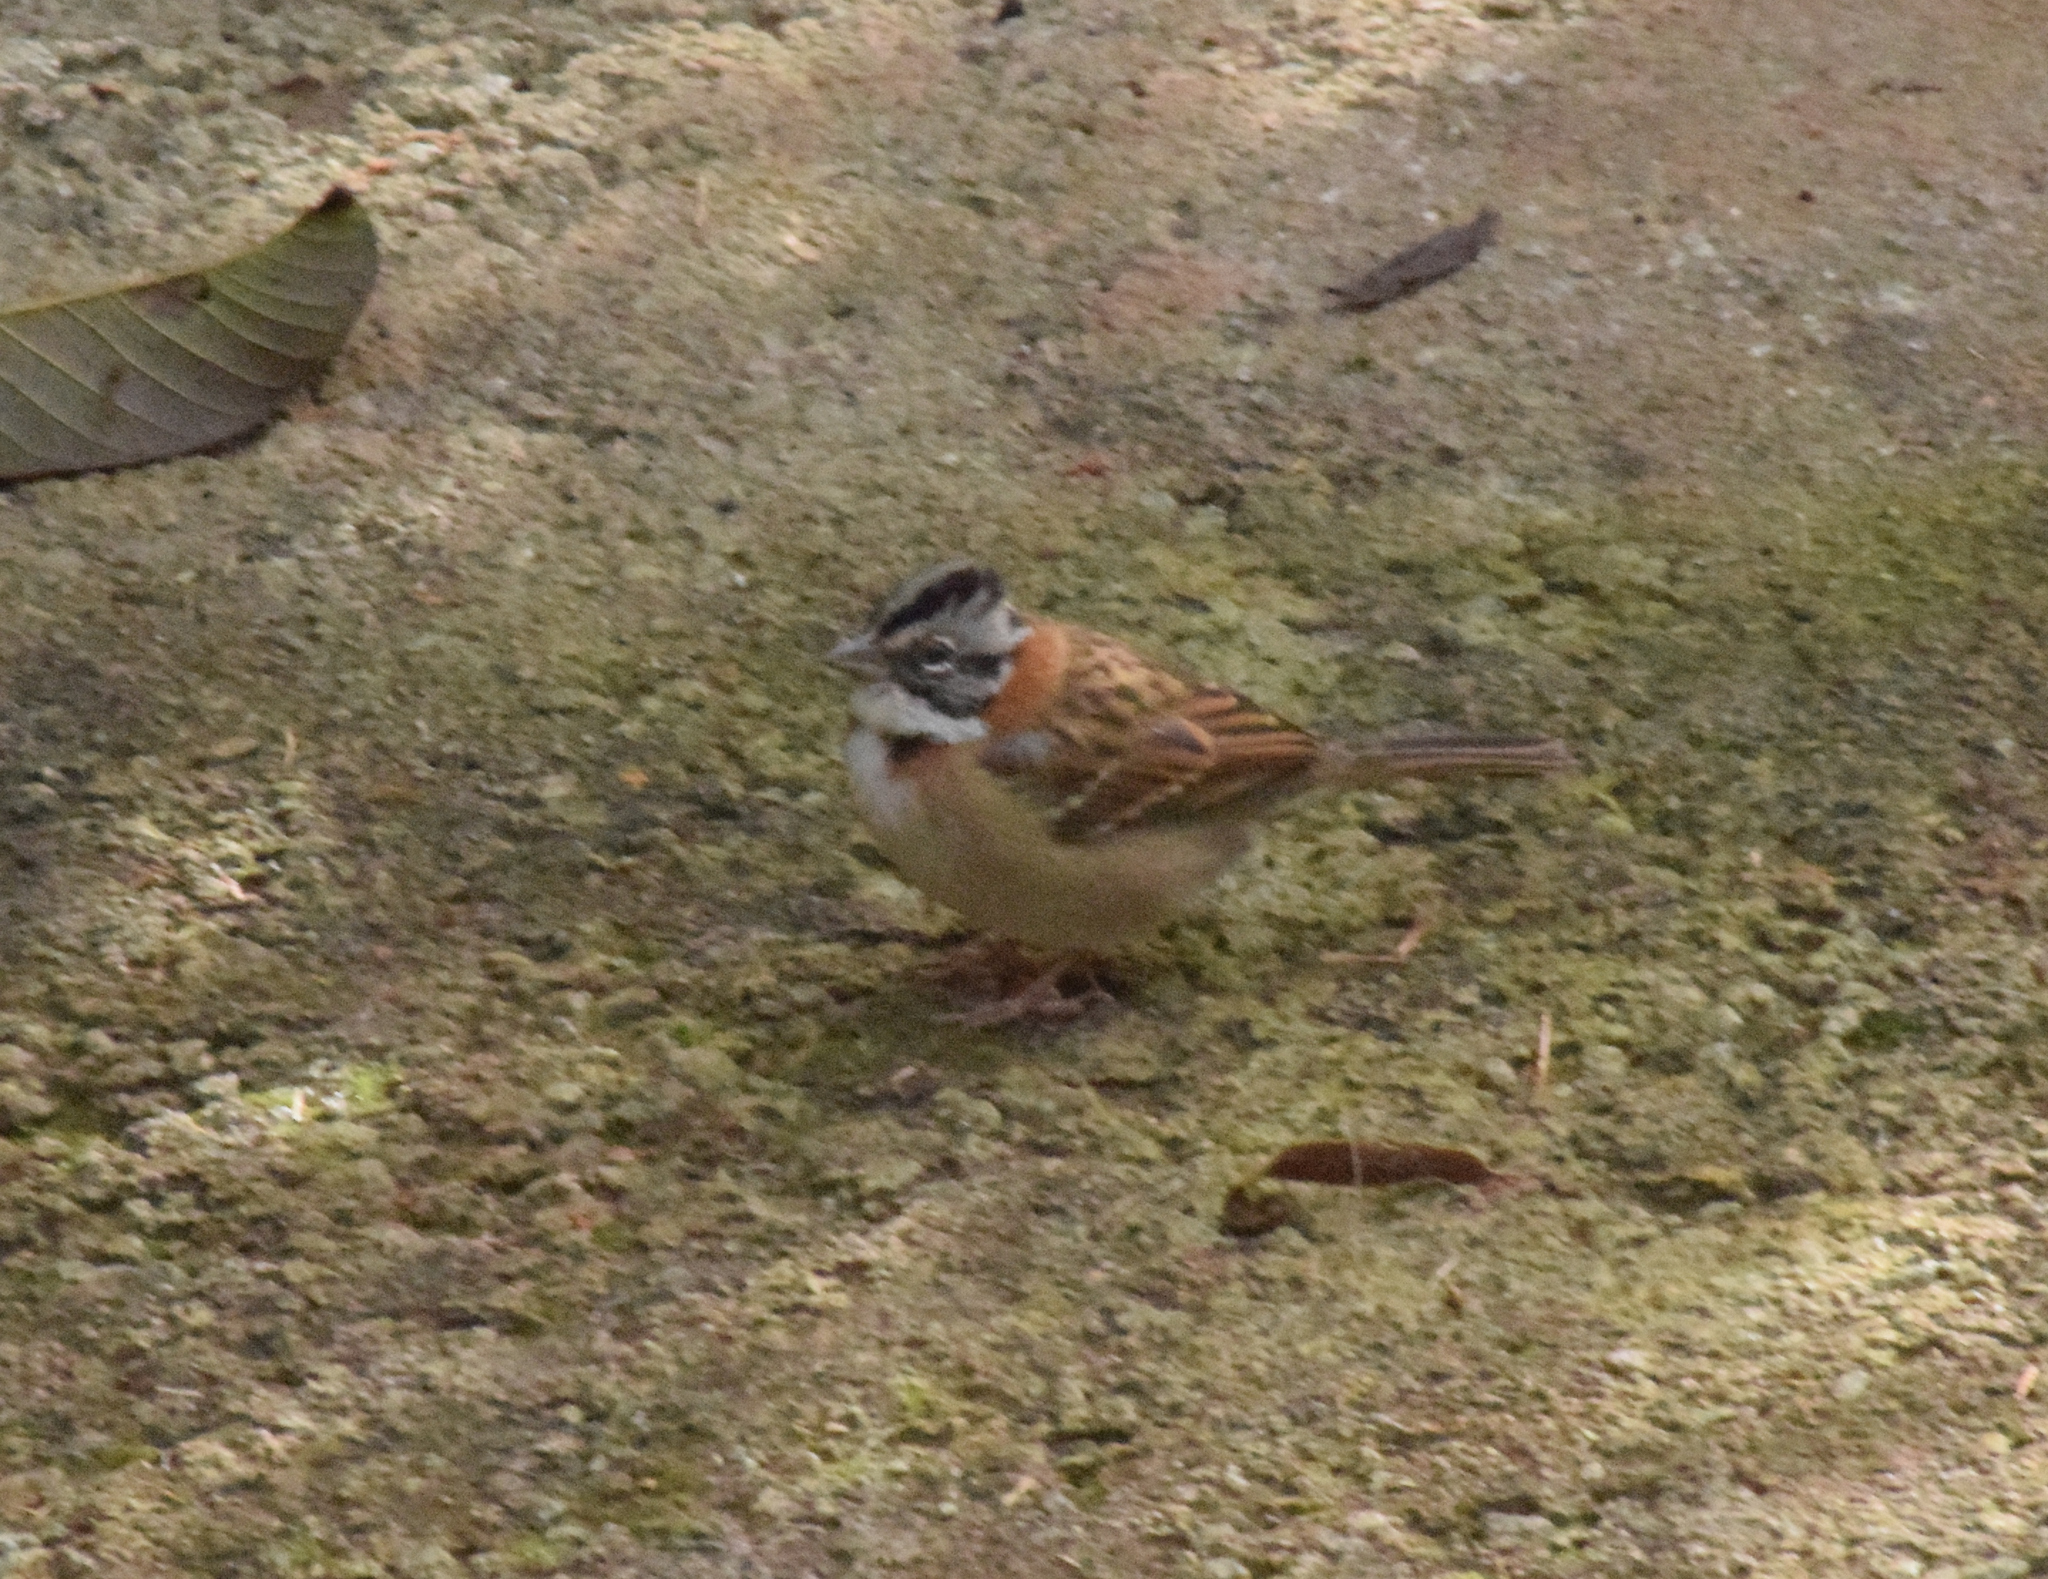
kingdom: Animalia
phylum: Chordata
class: Aves
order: Passeriformes
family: Passerellidae
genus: Zonotrichia
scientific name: Zonotrichia capensis
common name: Rufous-collared sparrow
